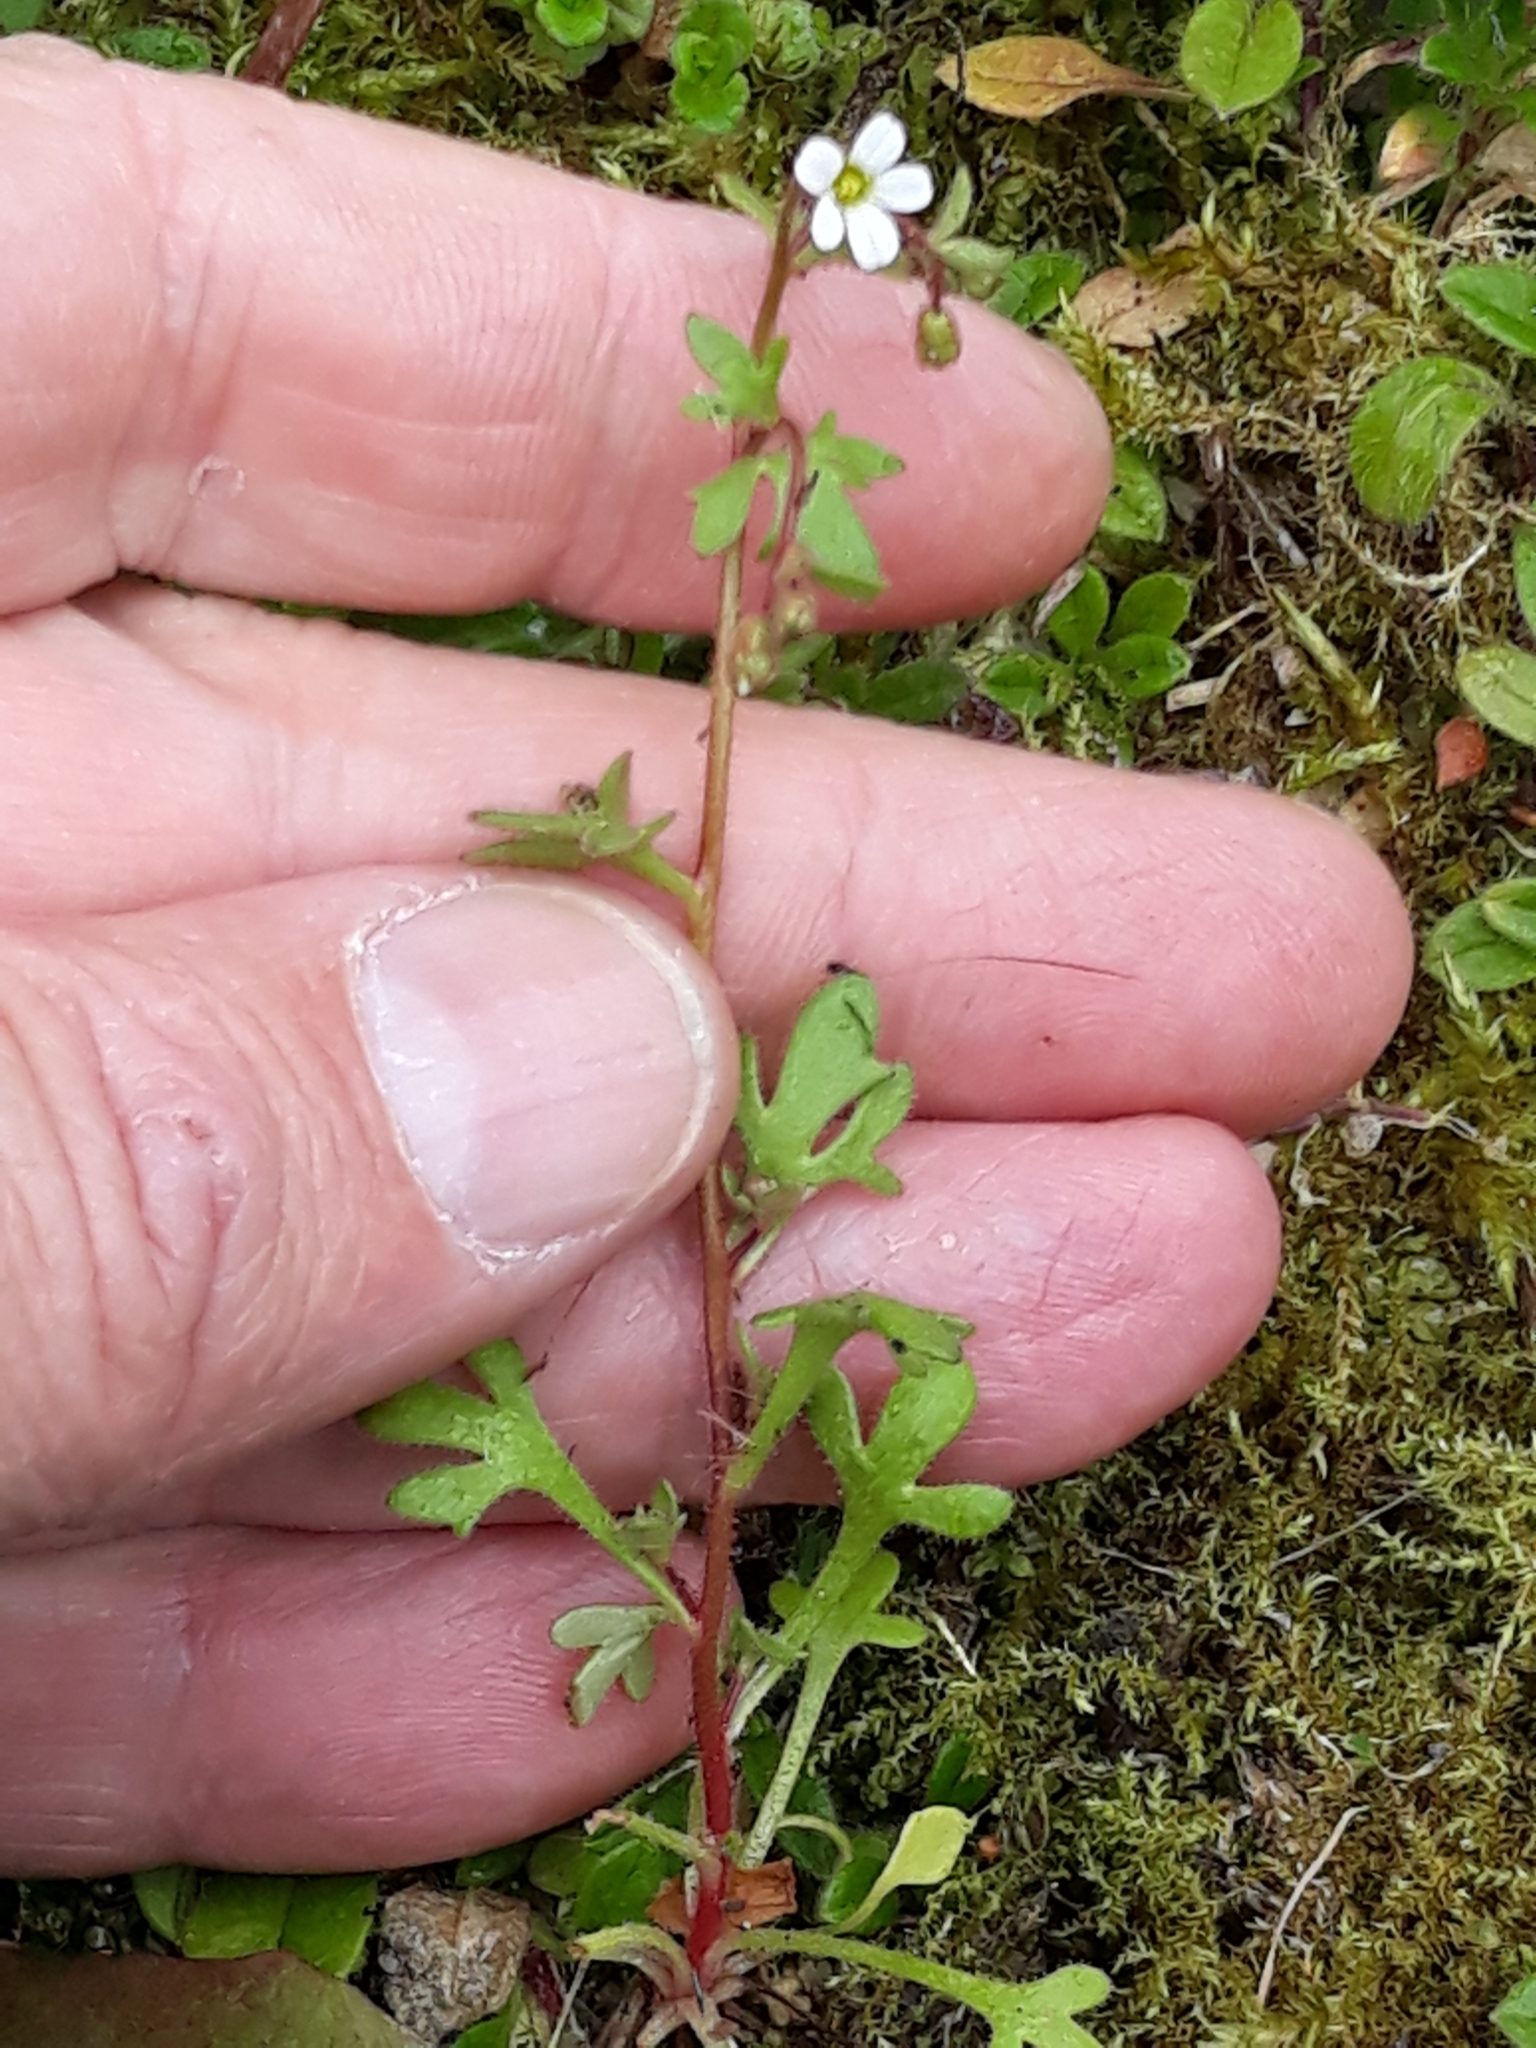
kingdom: Plantae
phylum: Tracheophyta
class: Magnoliopsida
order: Saxifragales
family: Saxifragaceae
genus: Saxifraga
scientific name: Saxifraga tridactylites
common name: Rue-leaved saxifrage
